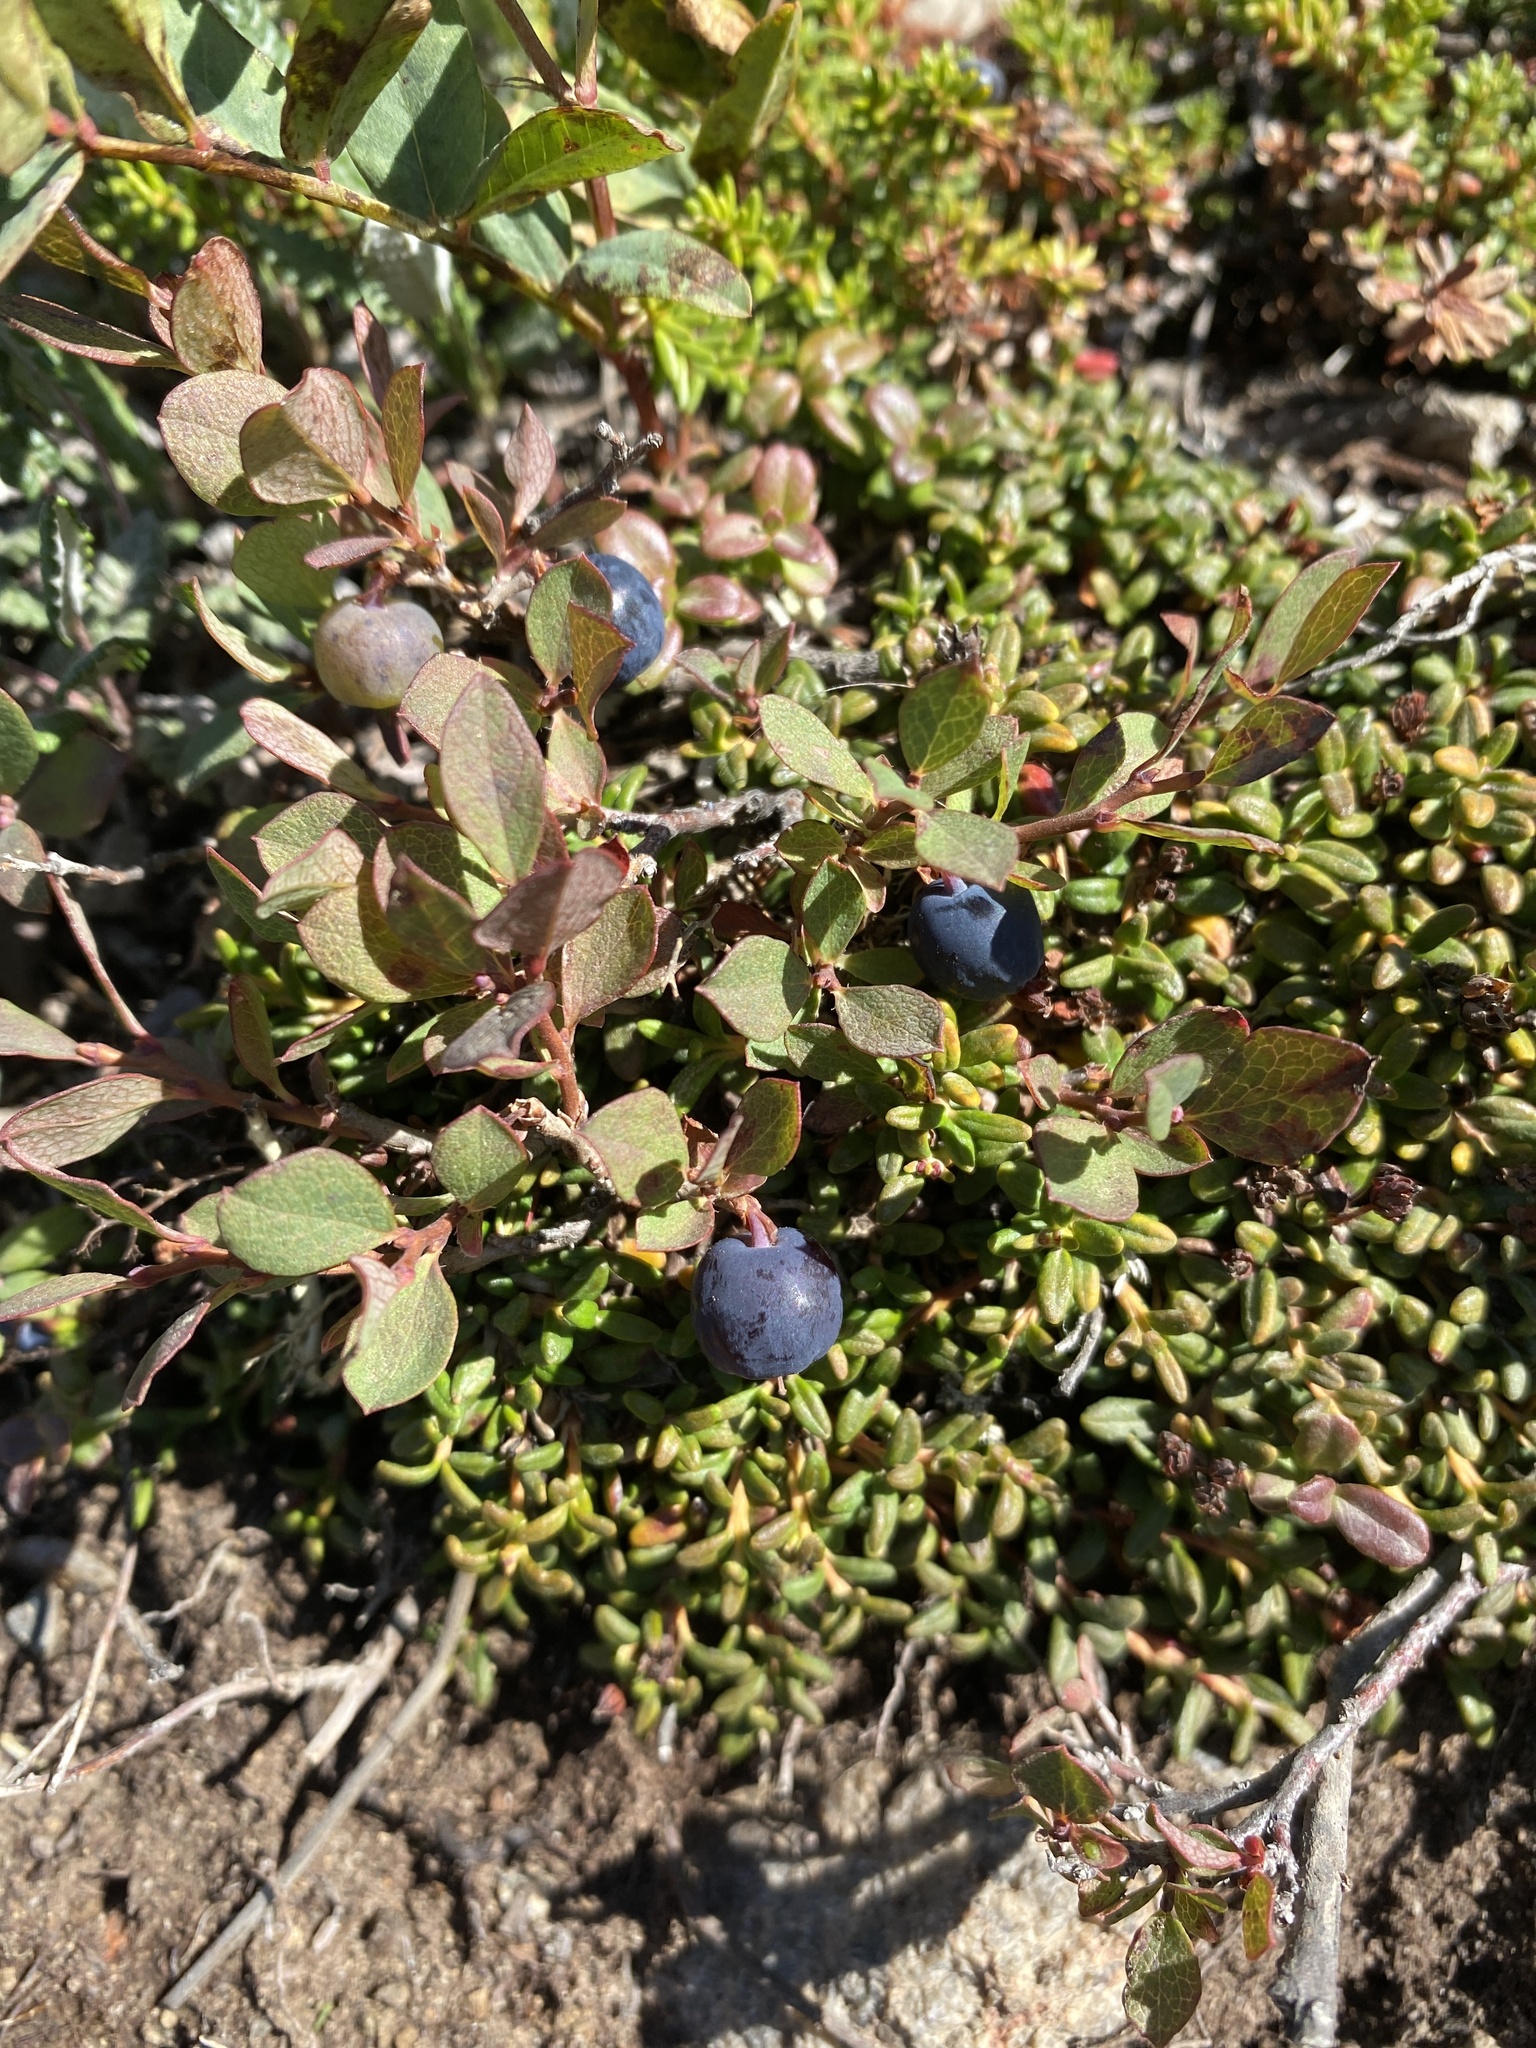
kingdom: Plantae
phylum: Tracheophyta
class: Magnoliopsida
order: Ericales
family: Ericaceae
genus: Vaccinium
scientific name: Vaccinium uliginosum
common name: Bog bilberry
